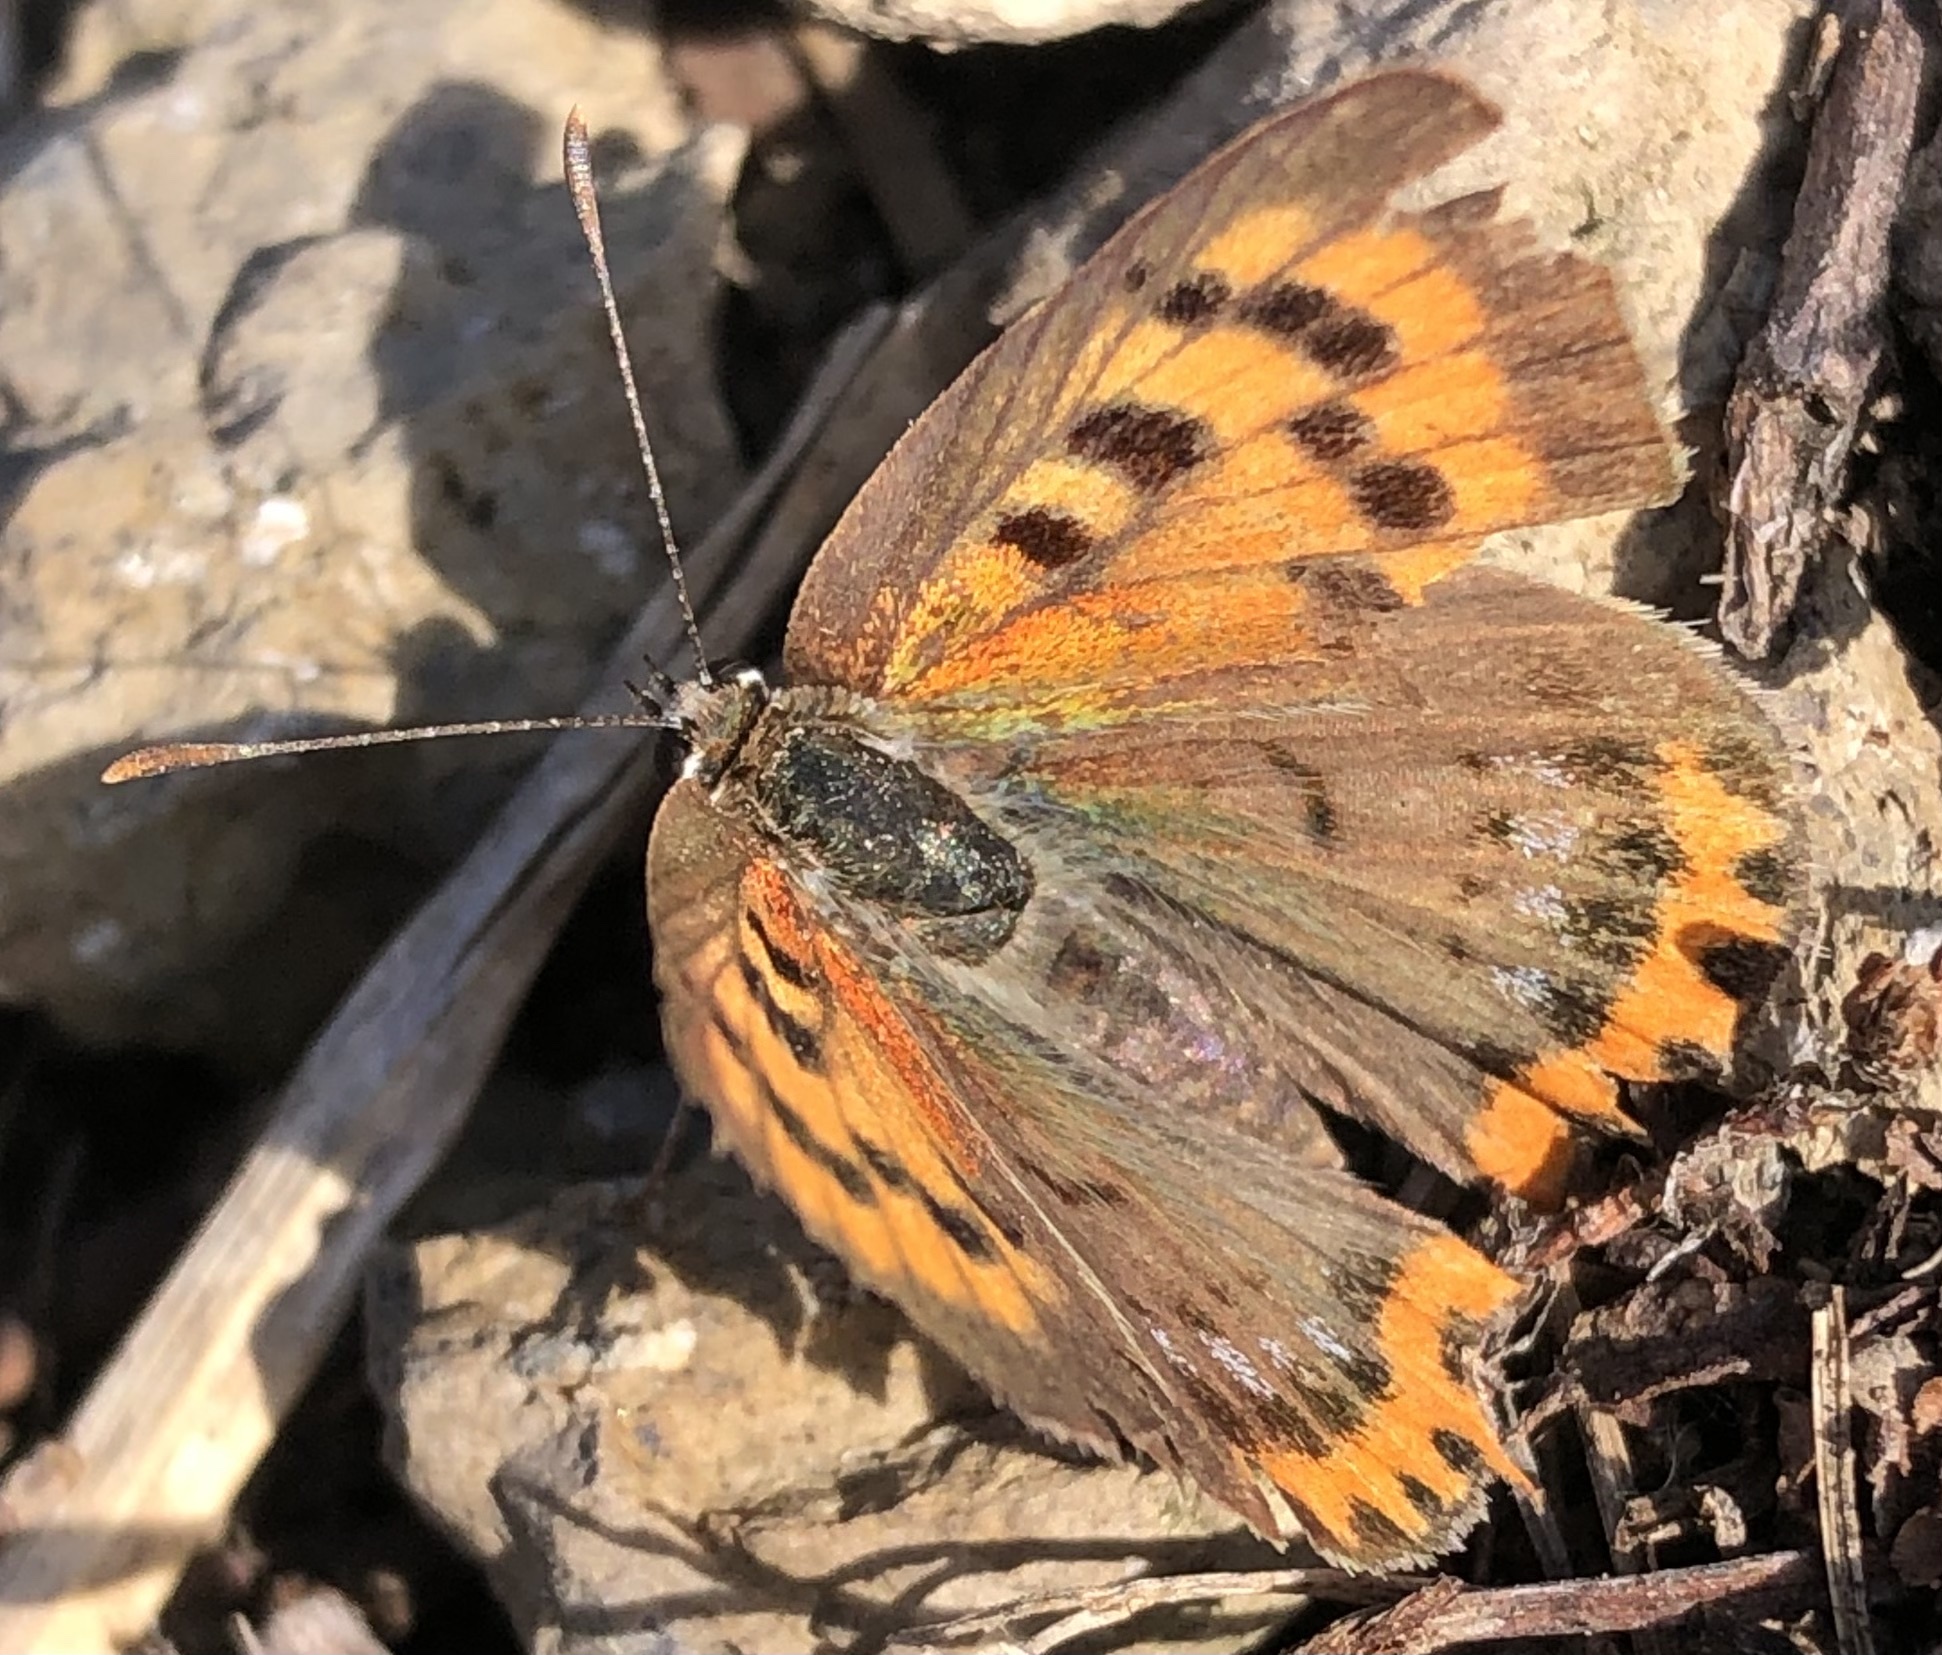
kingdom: Animalia
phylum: Arthropoda
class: Insecta
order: Lepidoptera
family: Lycaenidae
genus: Lycaena
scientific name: Lycaena phlaeas
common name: Small copper
